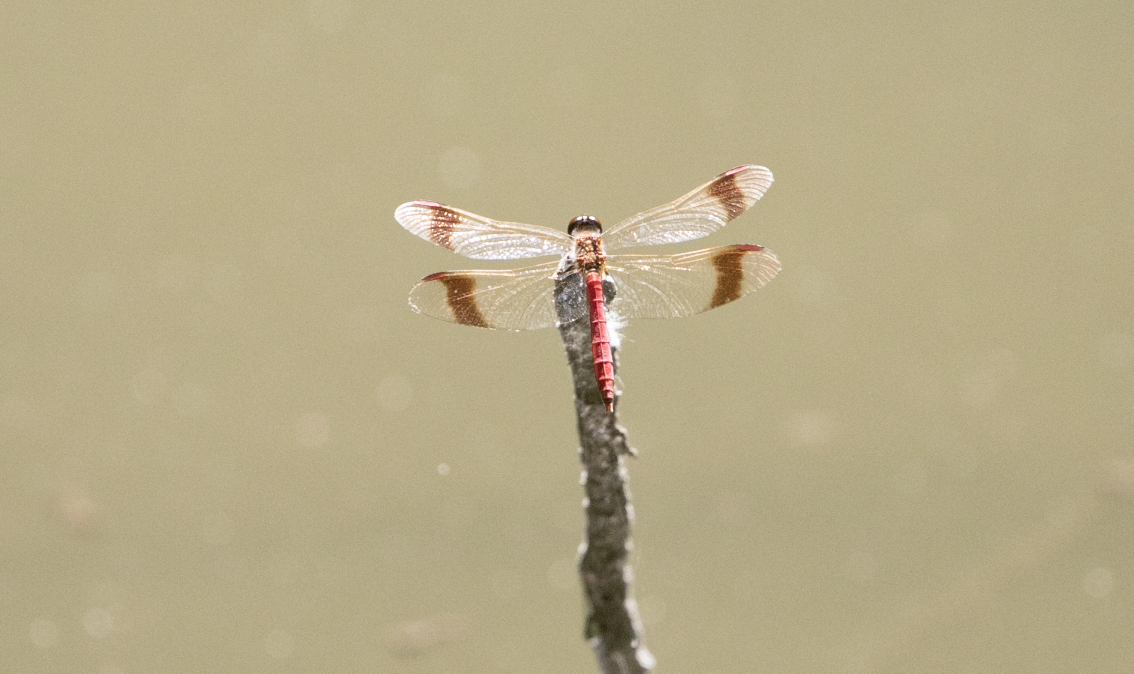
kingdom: Animalia
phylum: Arthropoda
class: Insecta
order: Odonata
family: Libellulidae
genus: Sympetrum
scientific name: Sympetrum pedemontanum
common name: Banded darter
